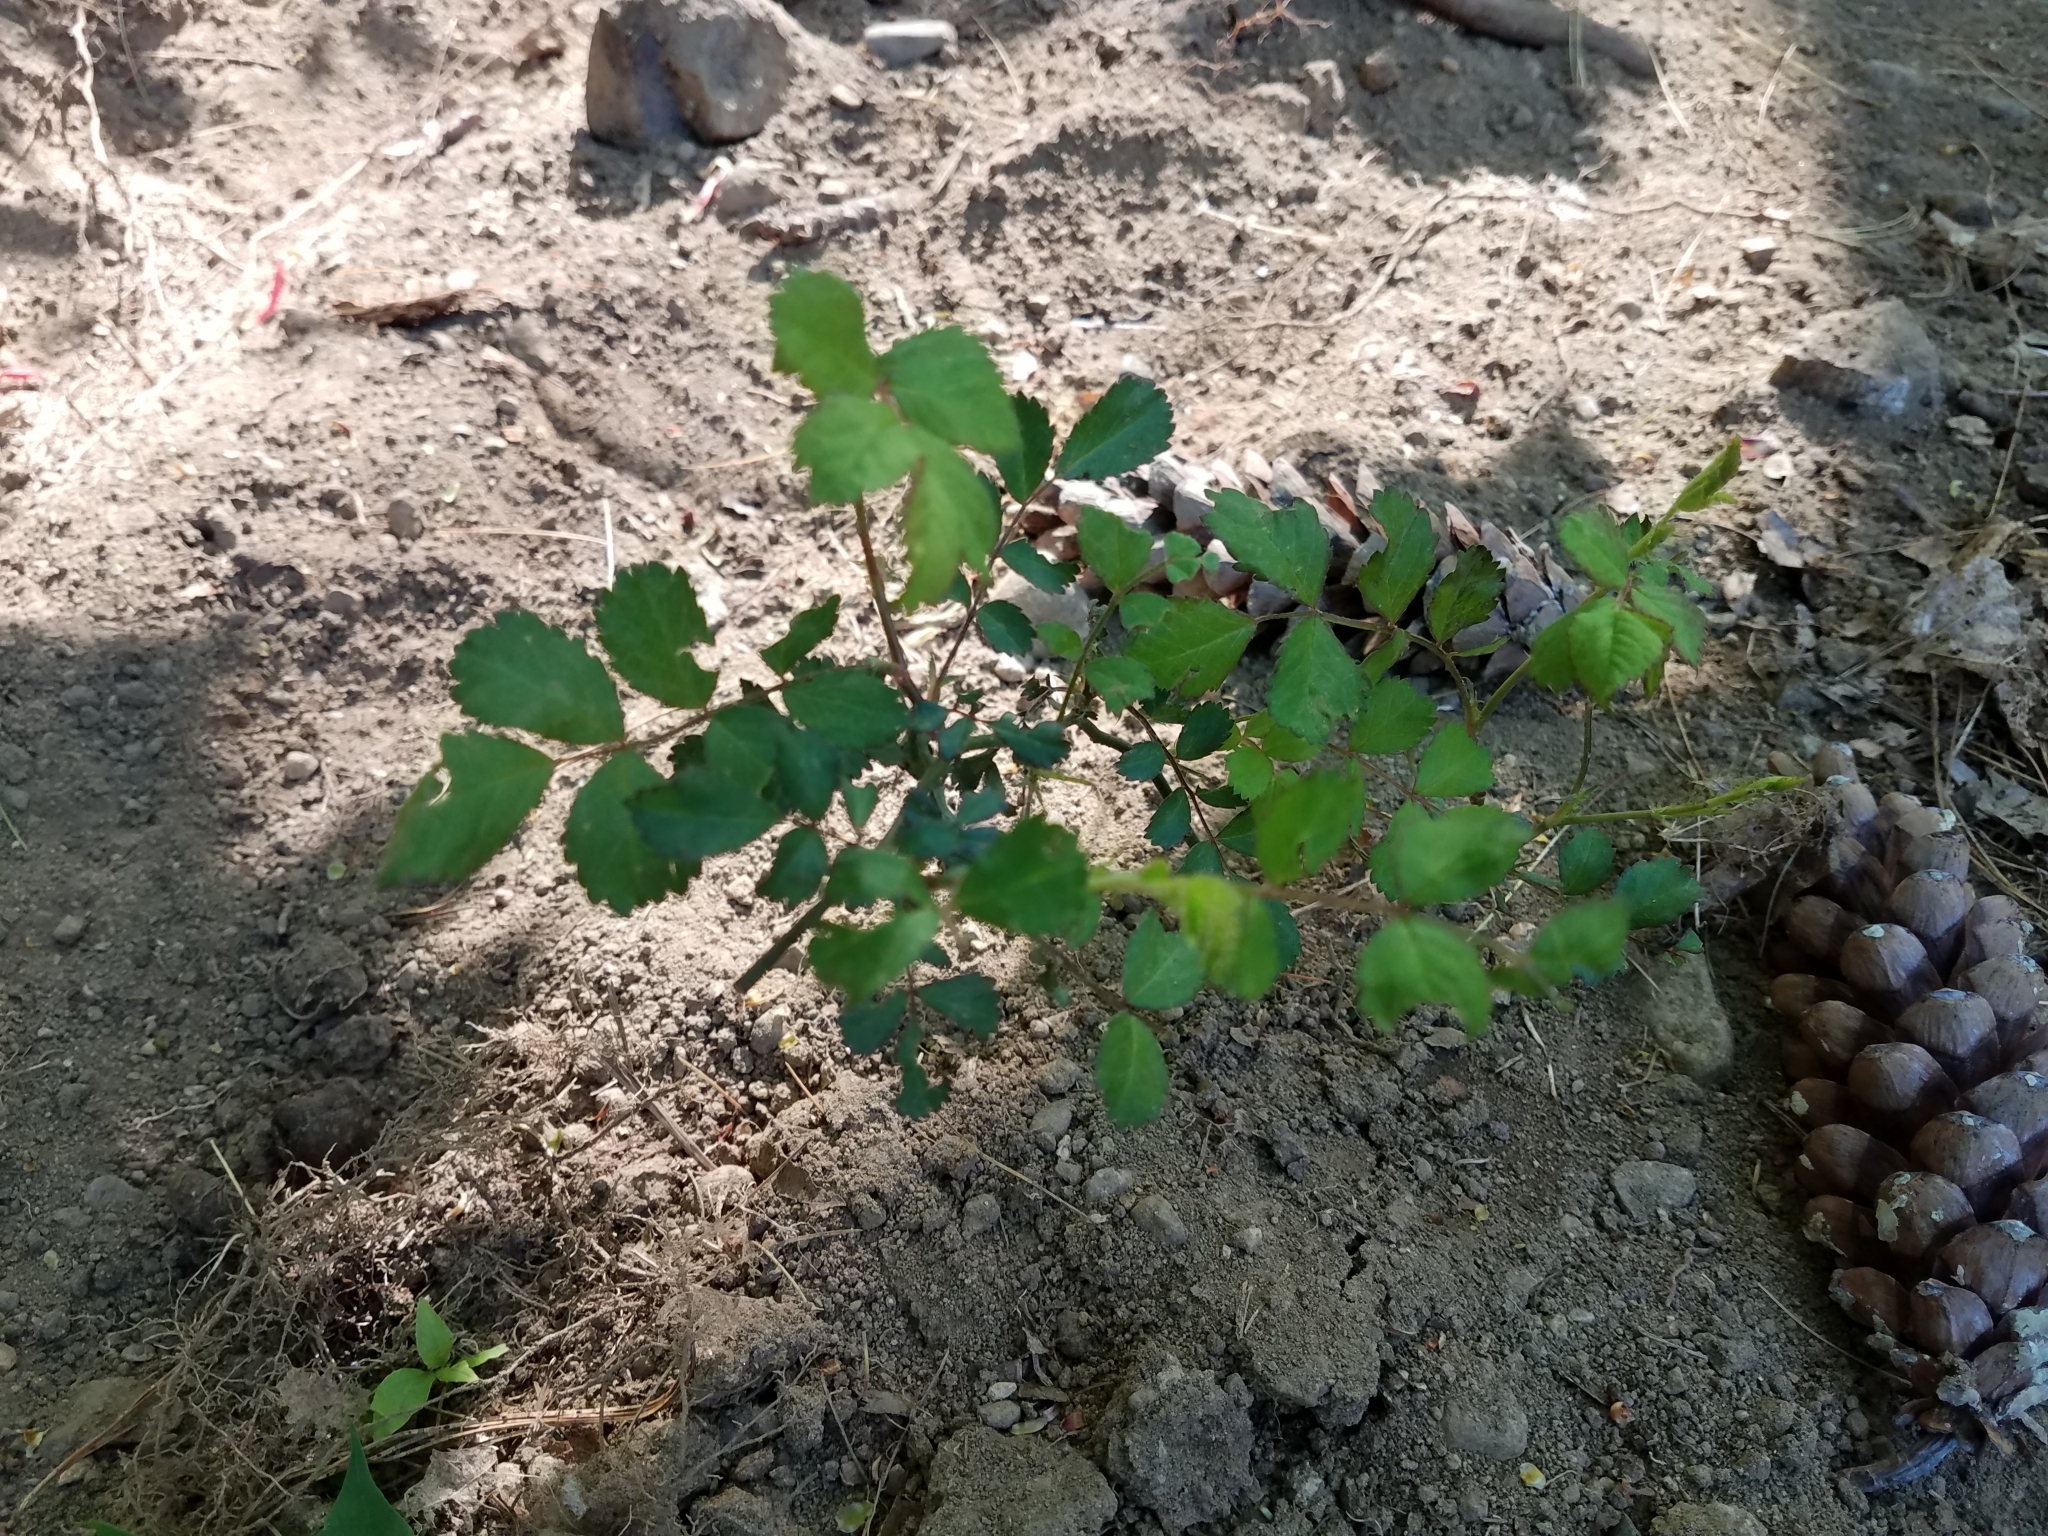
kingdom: Plantae
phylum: Tracheophyta
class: Magnoliopsida
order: Rosales
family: Rosaceae
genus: Rosa
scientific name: Rosa multiflora
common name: Multiflora rose
